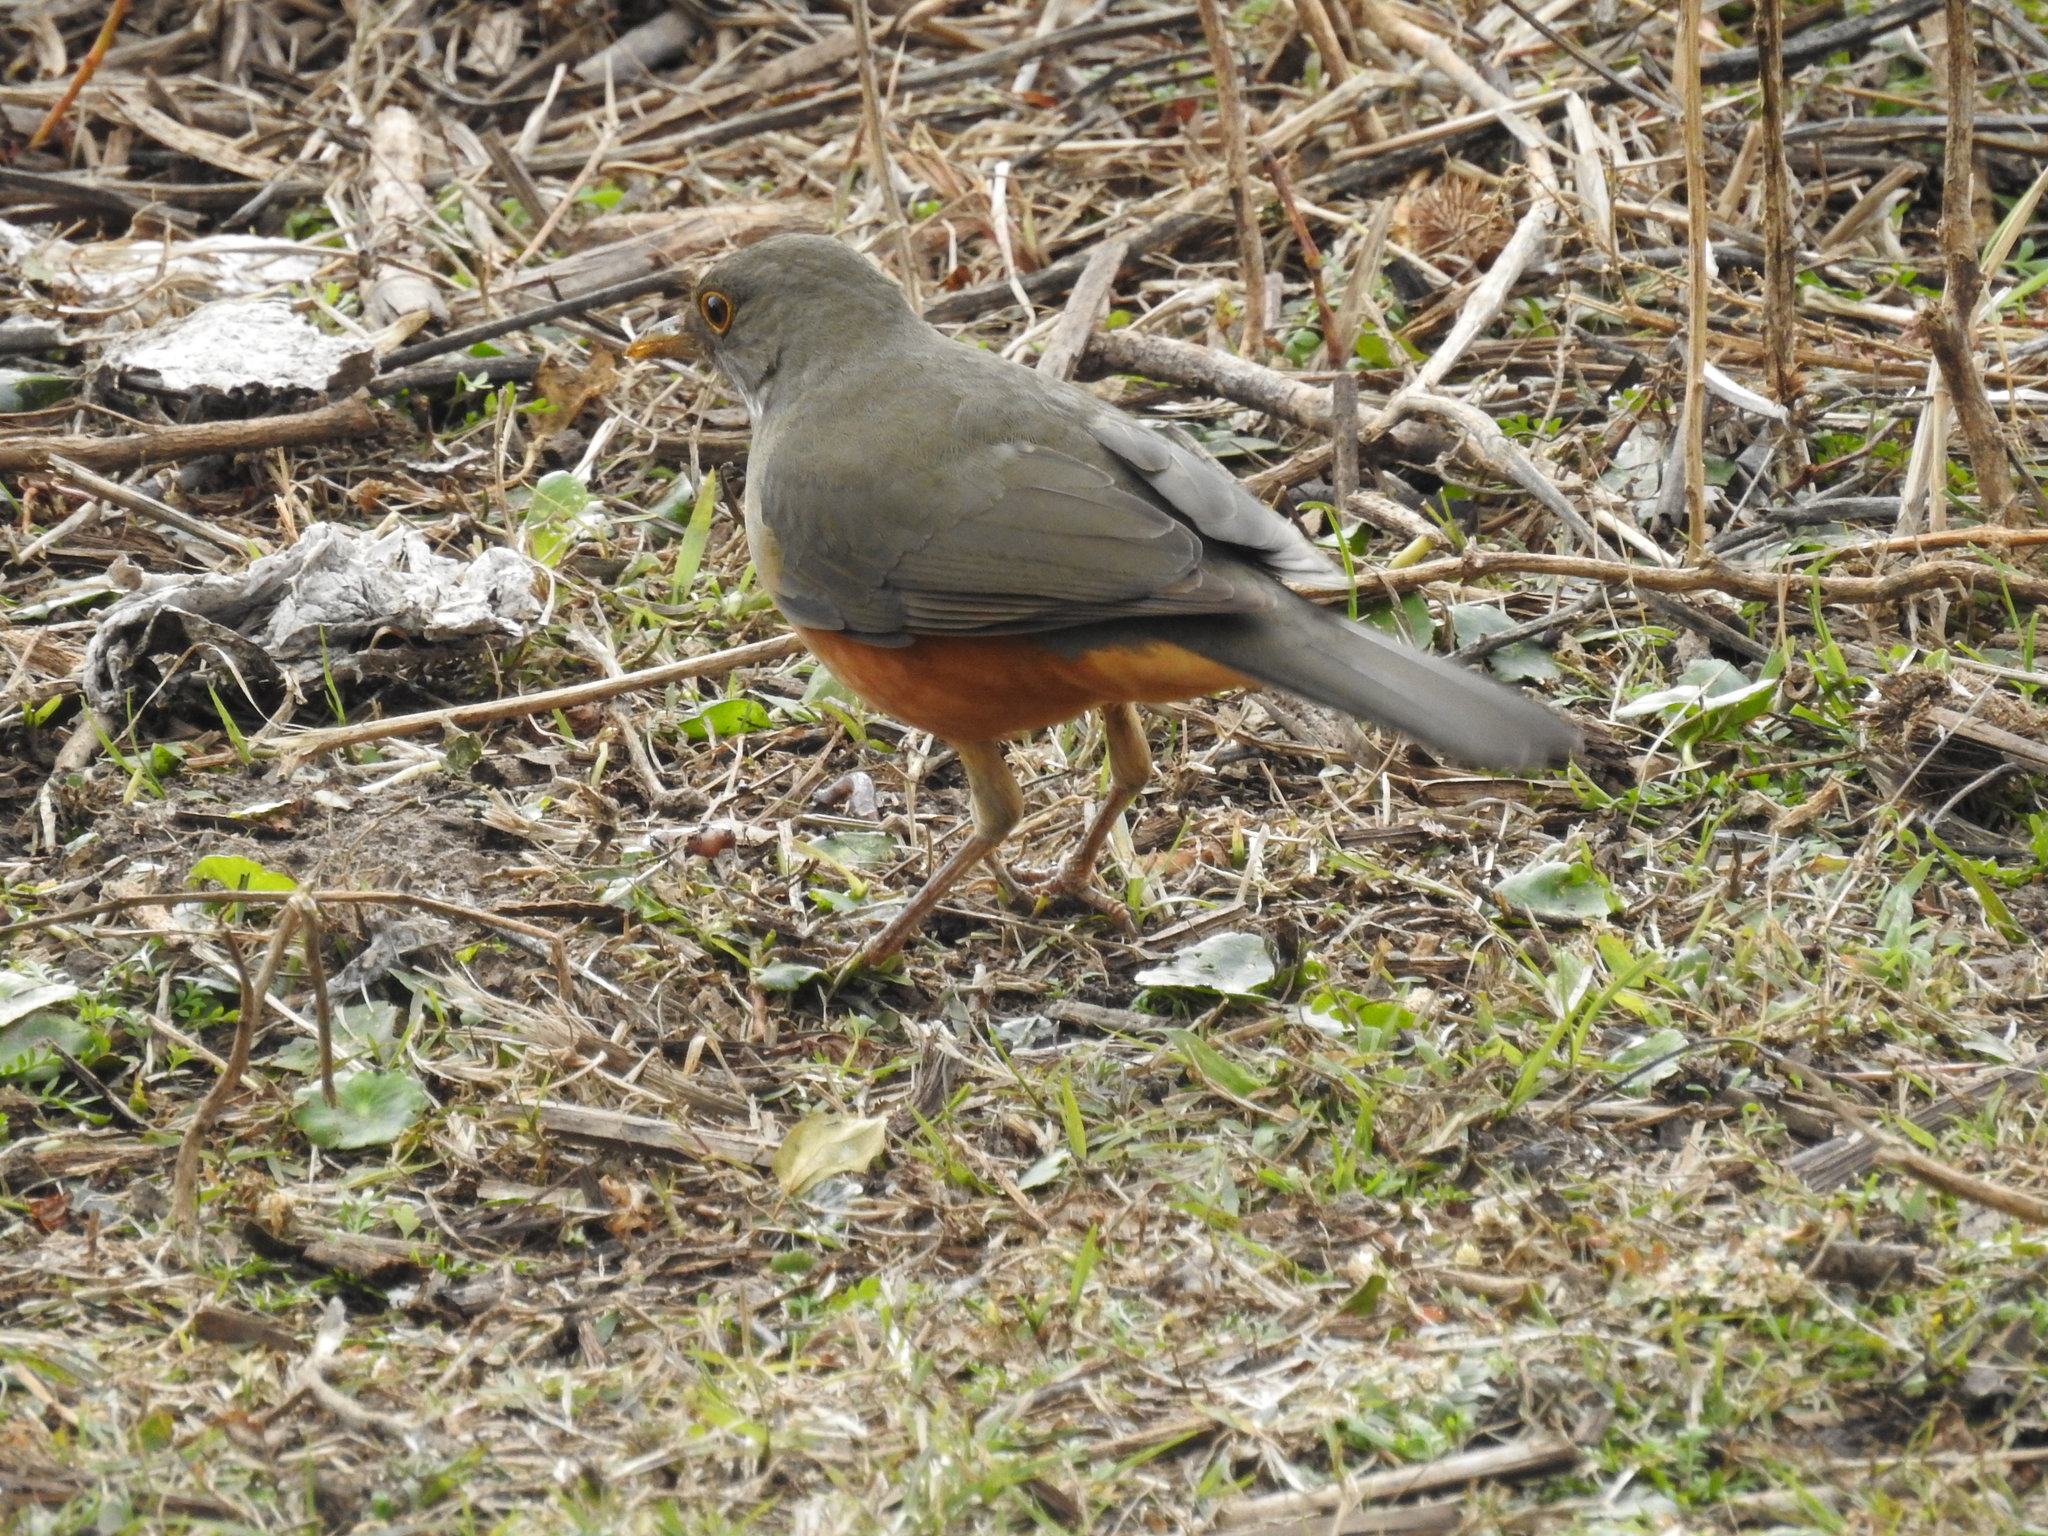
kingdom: Animalia
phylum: Chordata
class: Aves
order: Passeriformes
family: Turdidae
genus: Turdus
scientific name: Turdus rufiventris
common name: Rufous-bellied thrush
